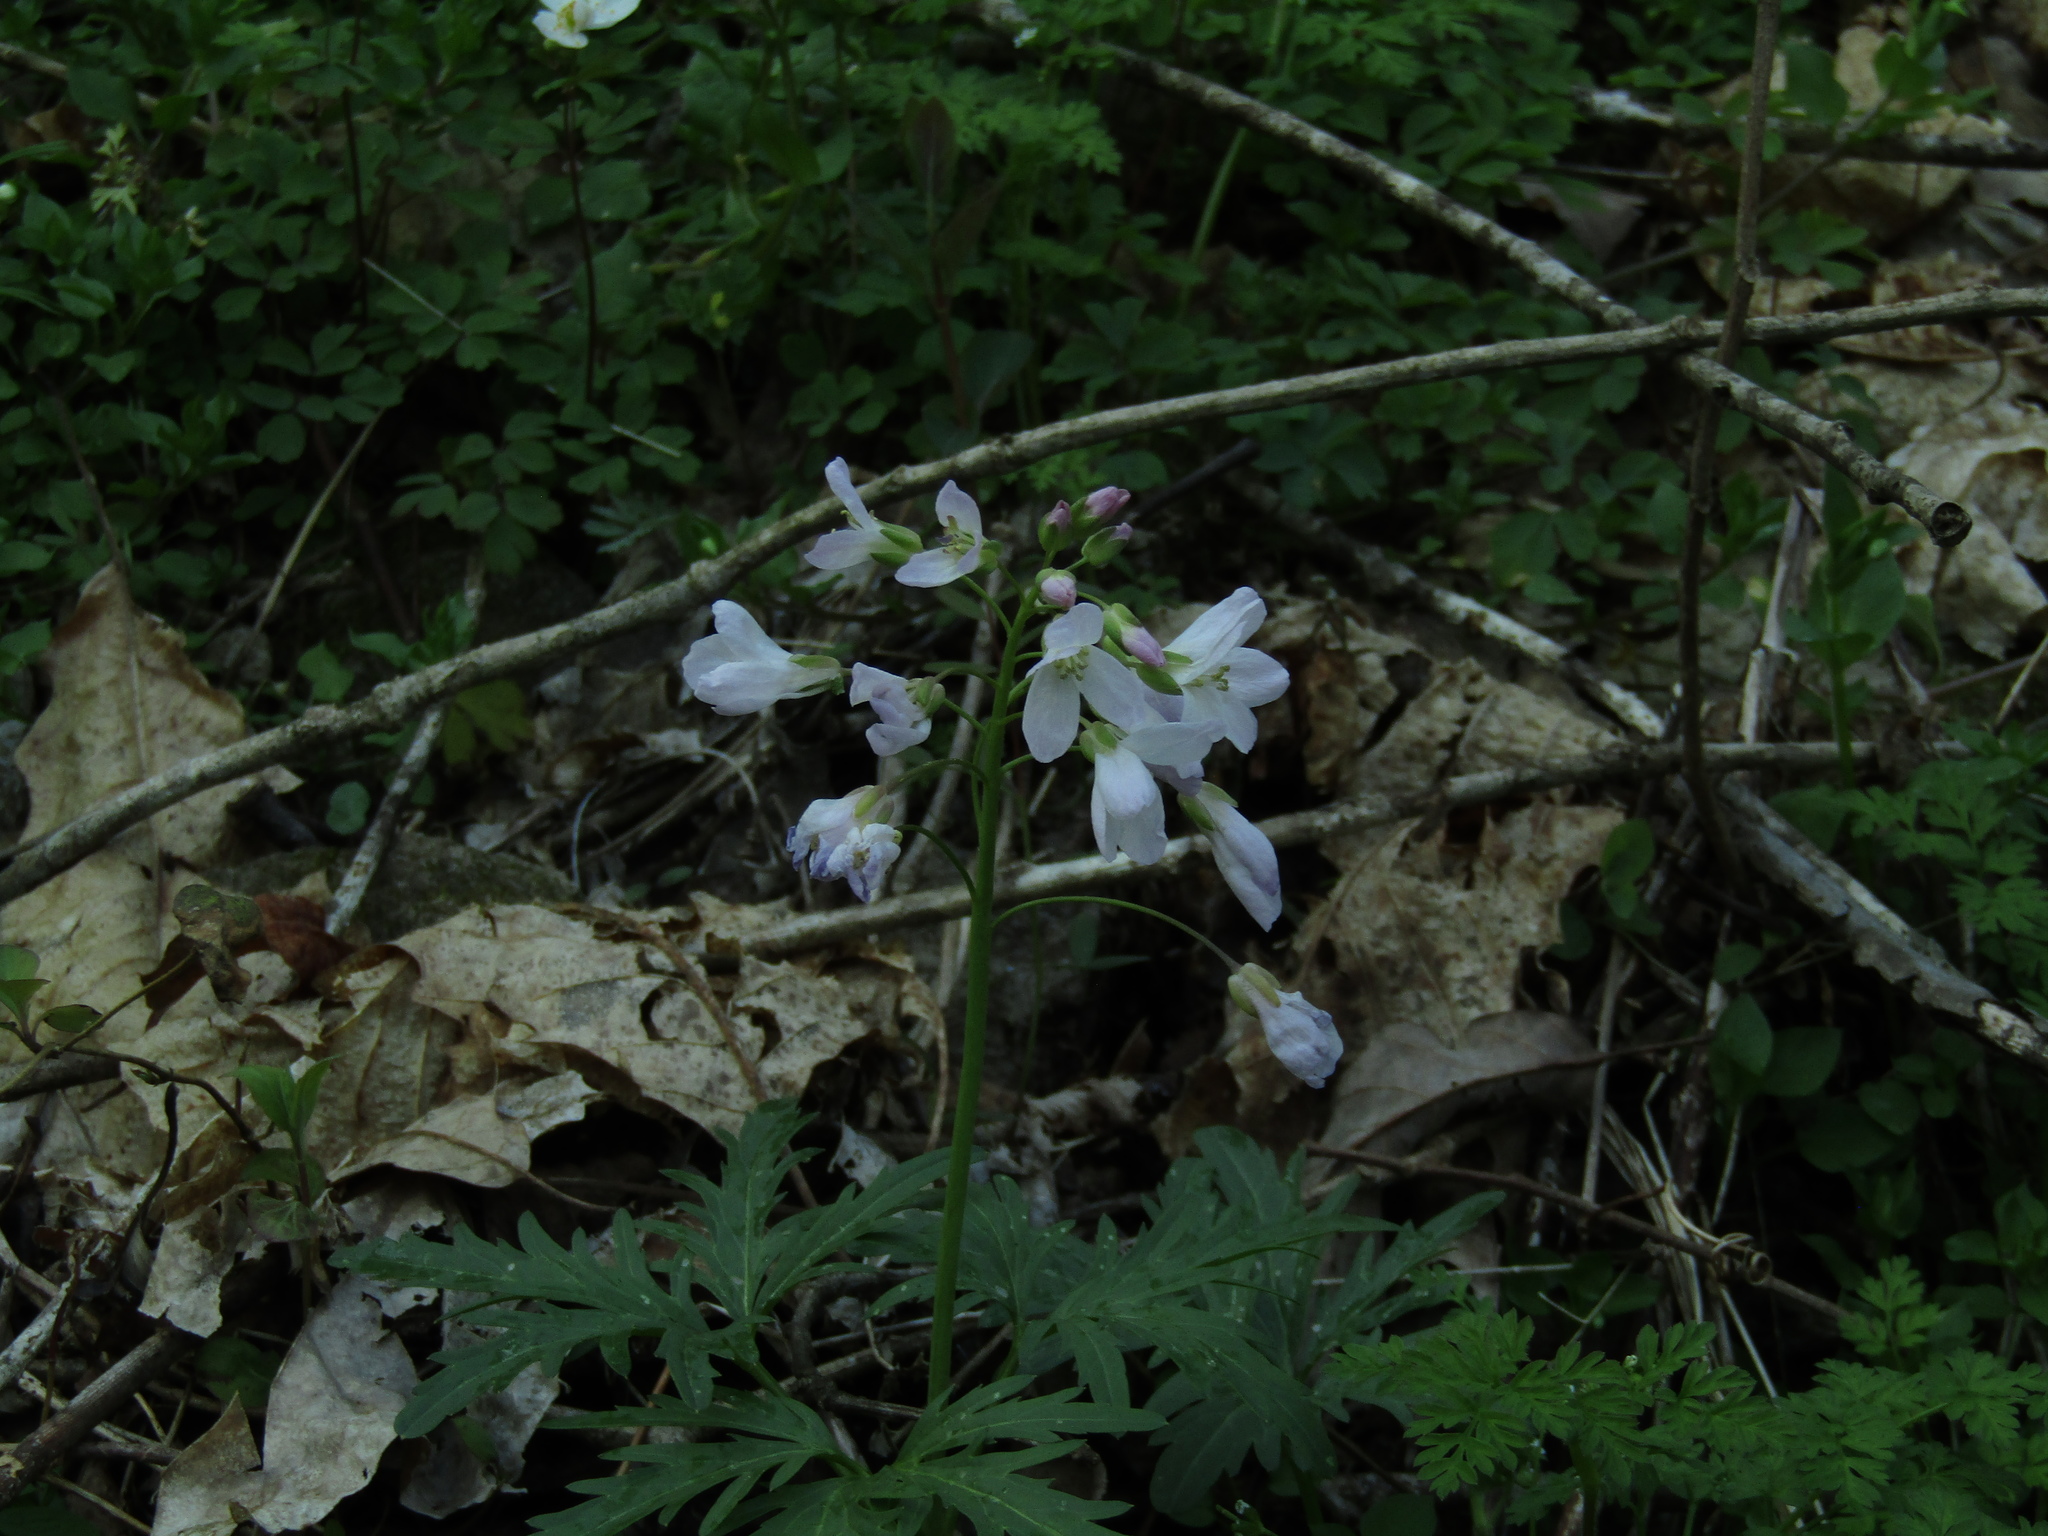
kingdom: Plantae
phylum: Tracheophyta
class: Magnoliopsida
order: Brassicales
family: Brassicaceae
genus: Cardamine
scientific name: Cardamine concatenata
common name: Cut-leaf toothcup
